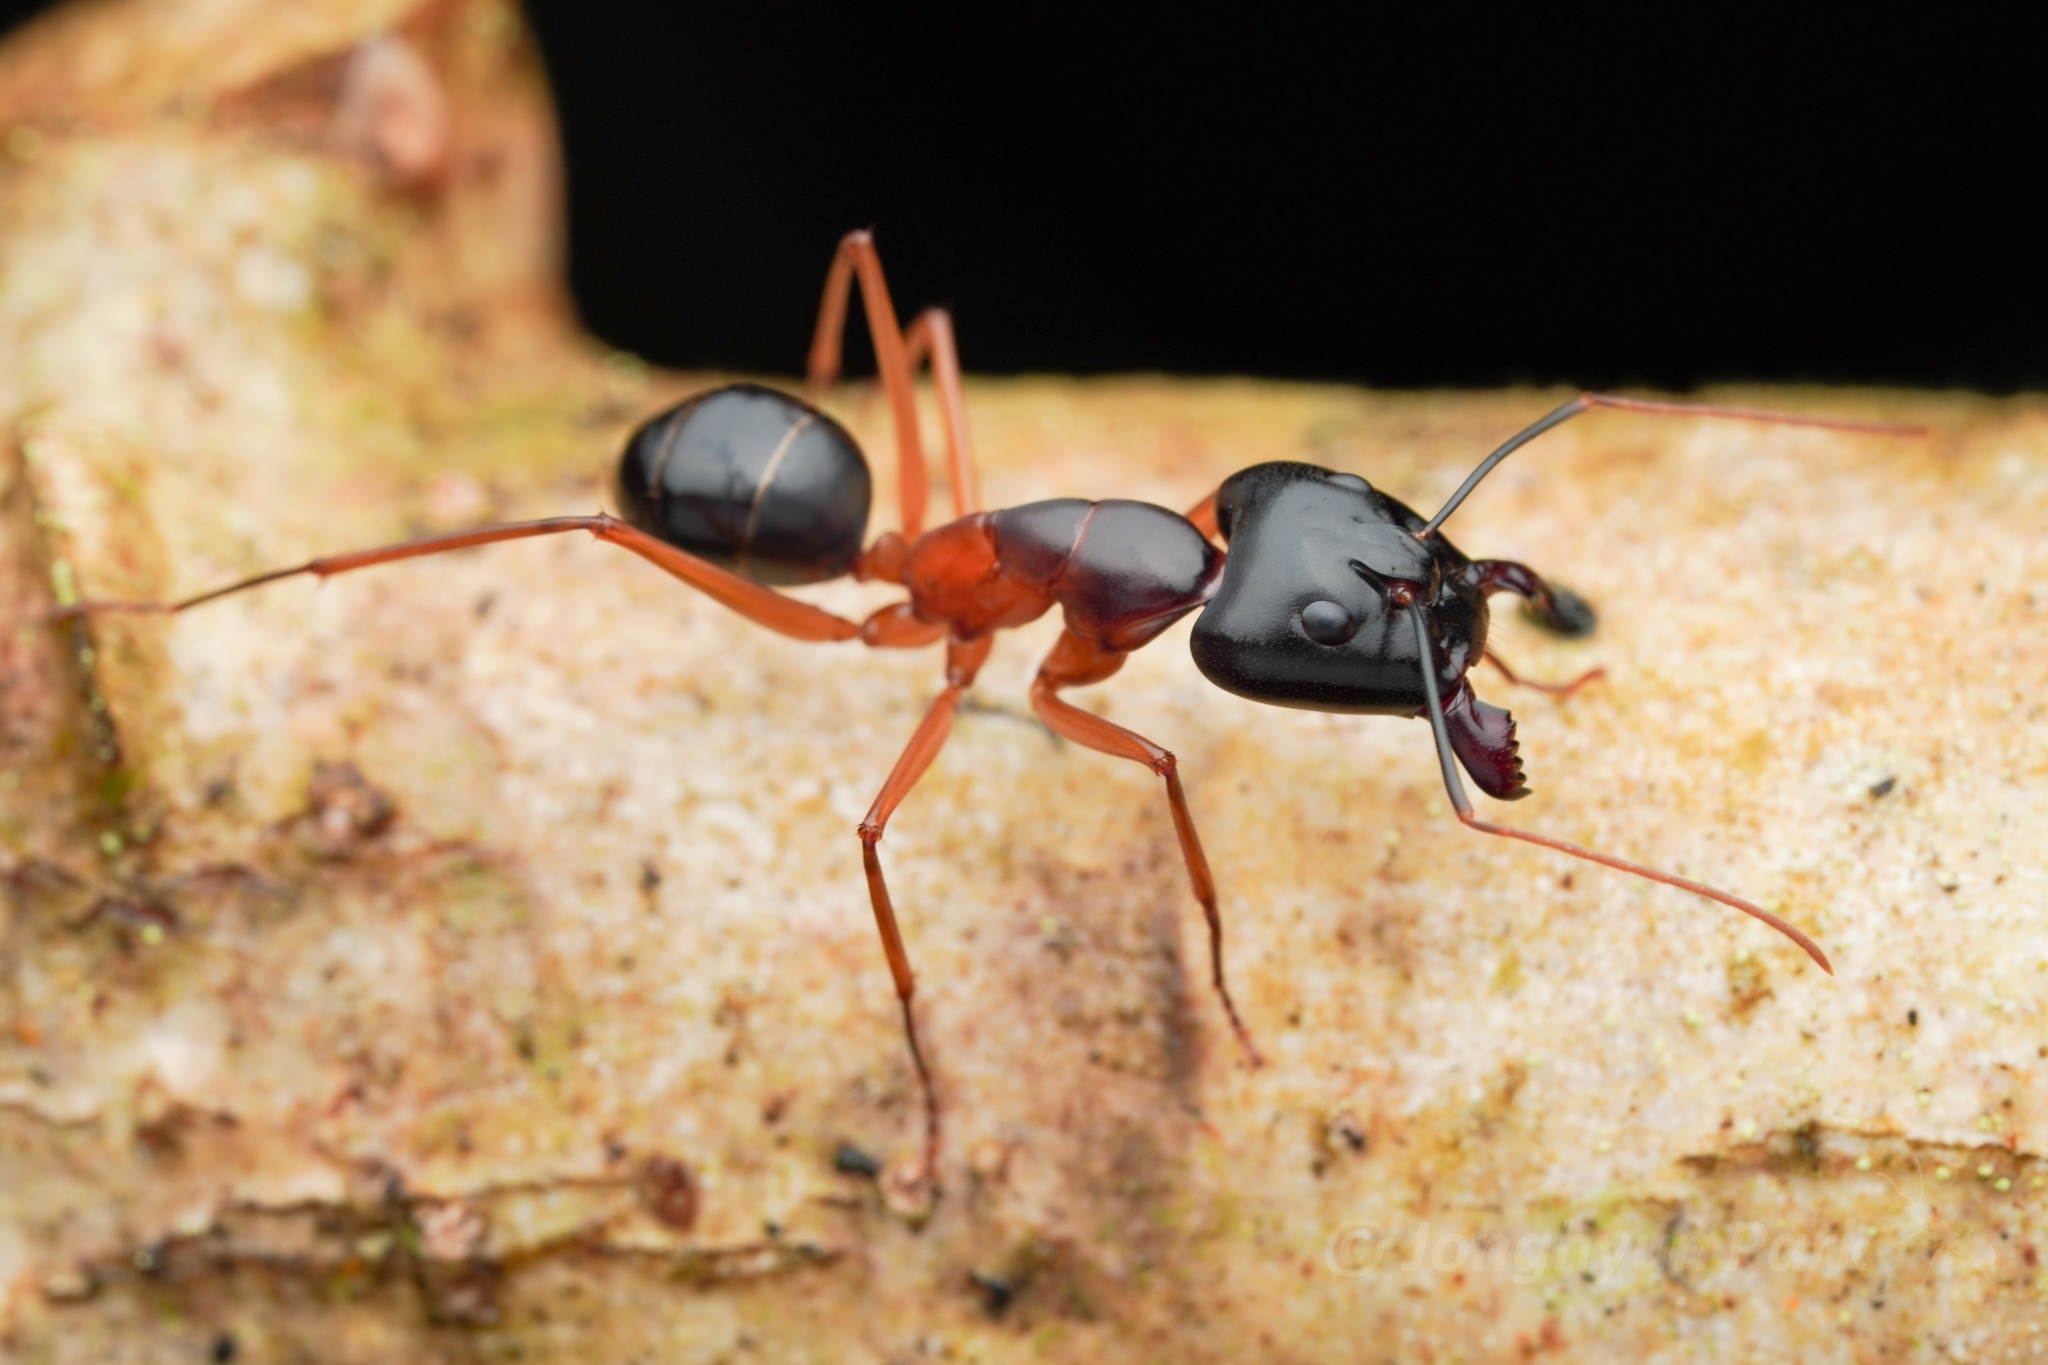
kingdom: Animalia
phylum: Arthropoda
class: Insecta
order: Hymenoptera
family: Formicidae
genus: Camponotus
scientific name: Camponotus festinus
